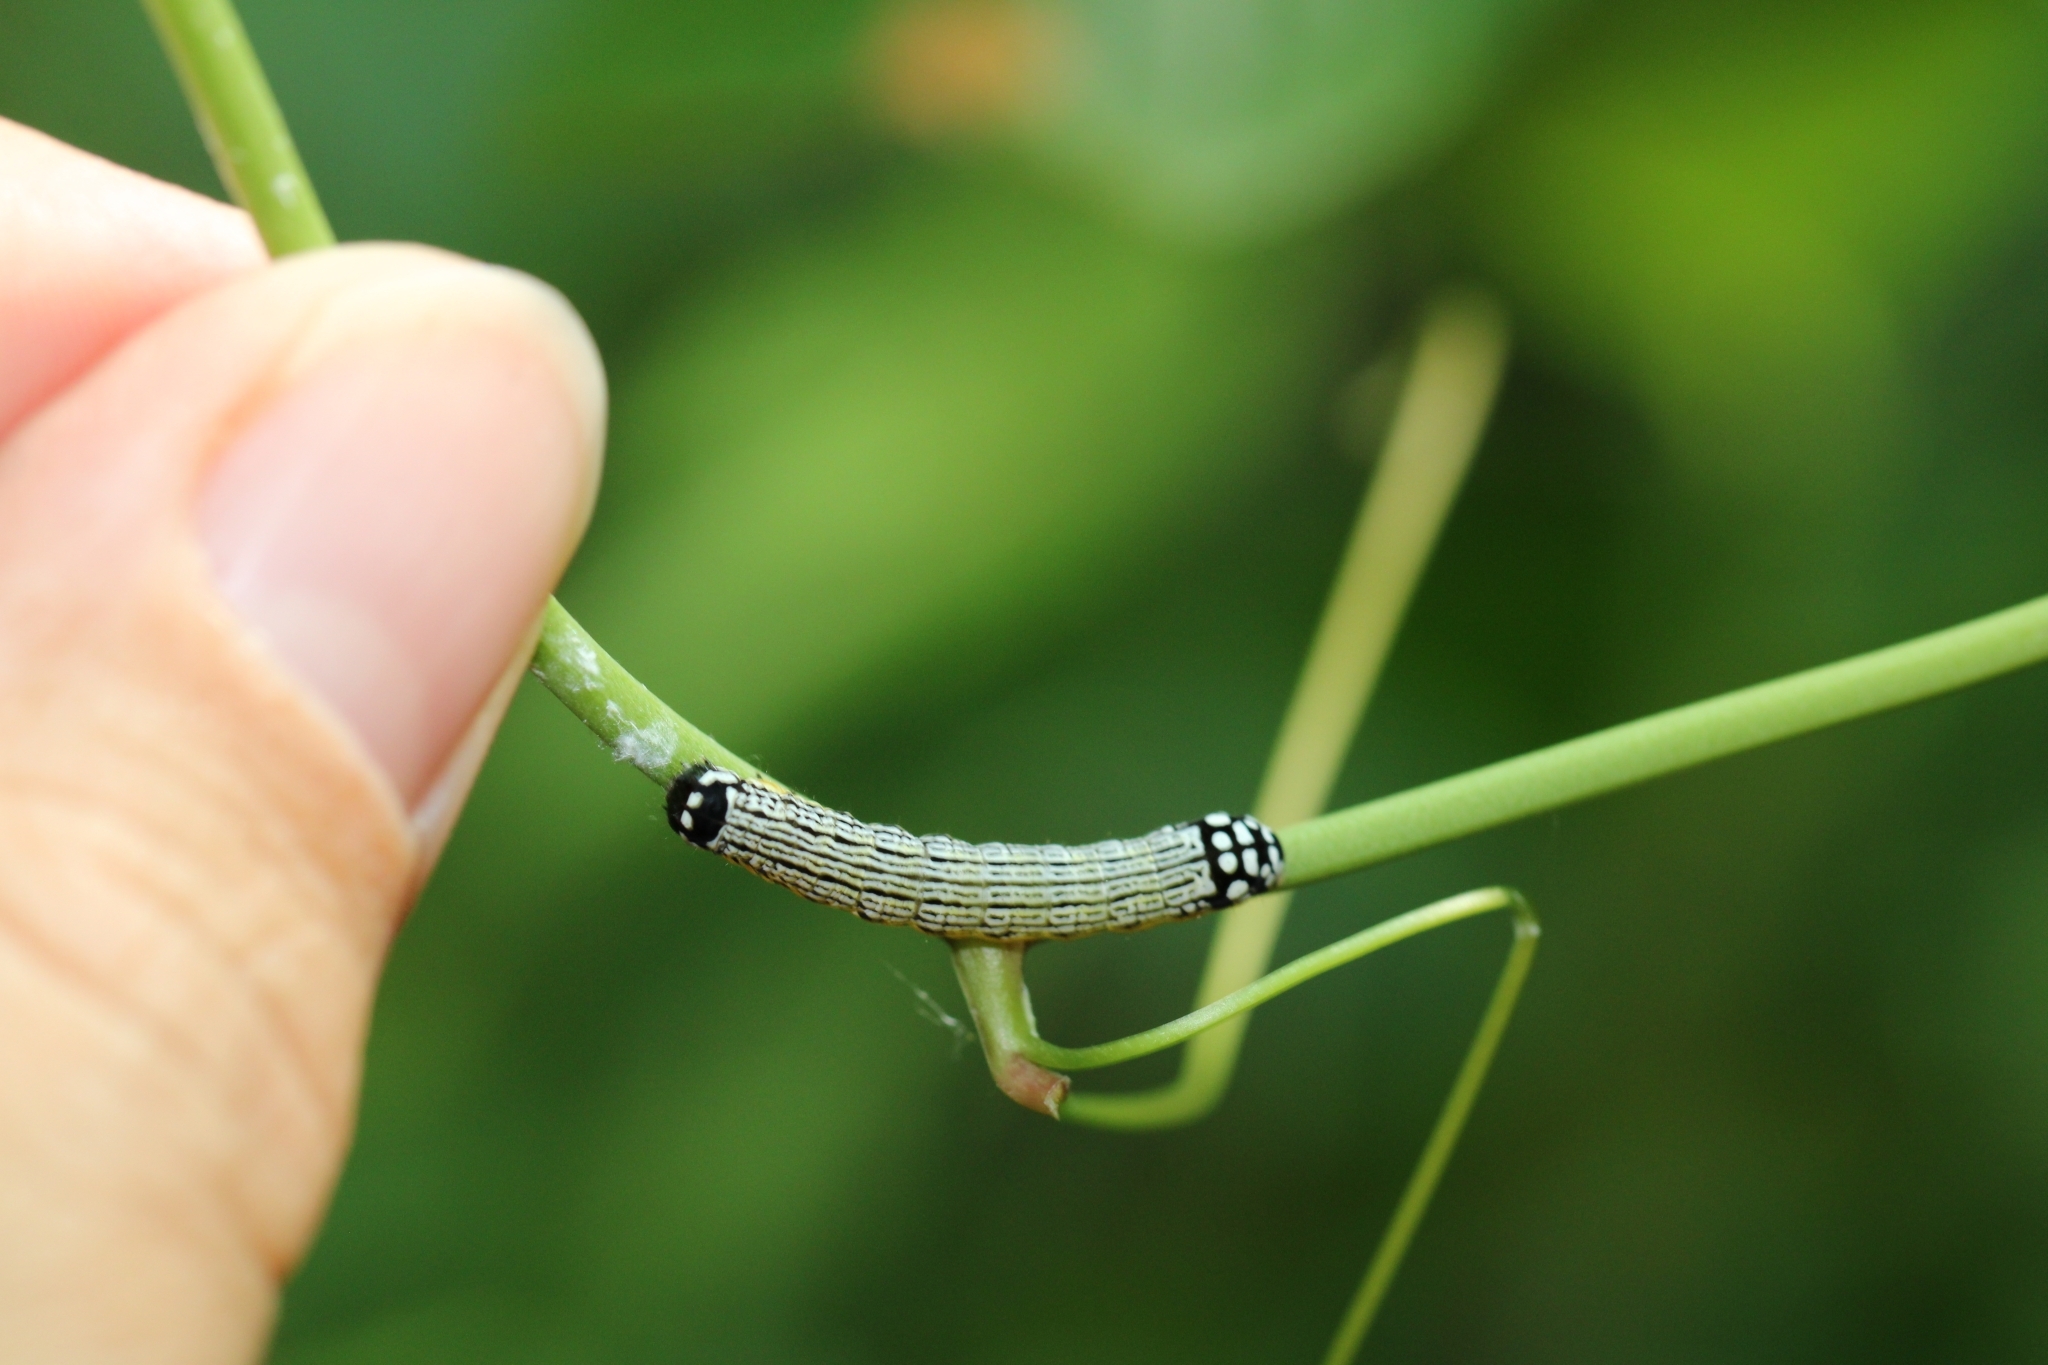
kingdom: Animalia
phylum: Arthropoda
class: Insecta
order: Lepidoptera
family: Noctuidae
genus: Phosphila
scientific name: Phosphila turbulenta
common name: Turbulent phosphila moth
